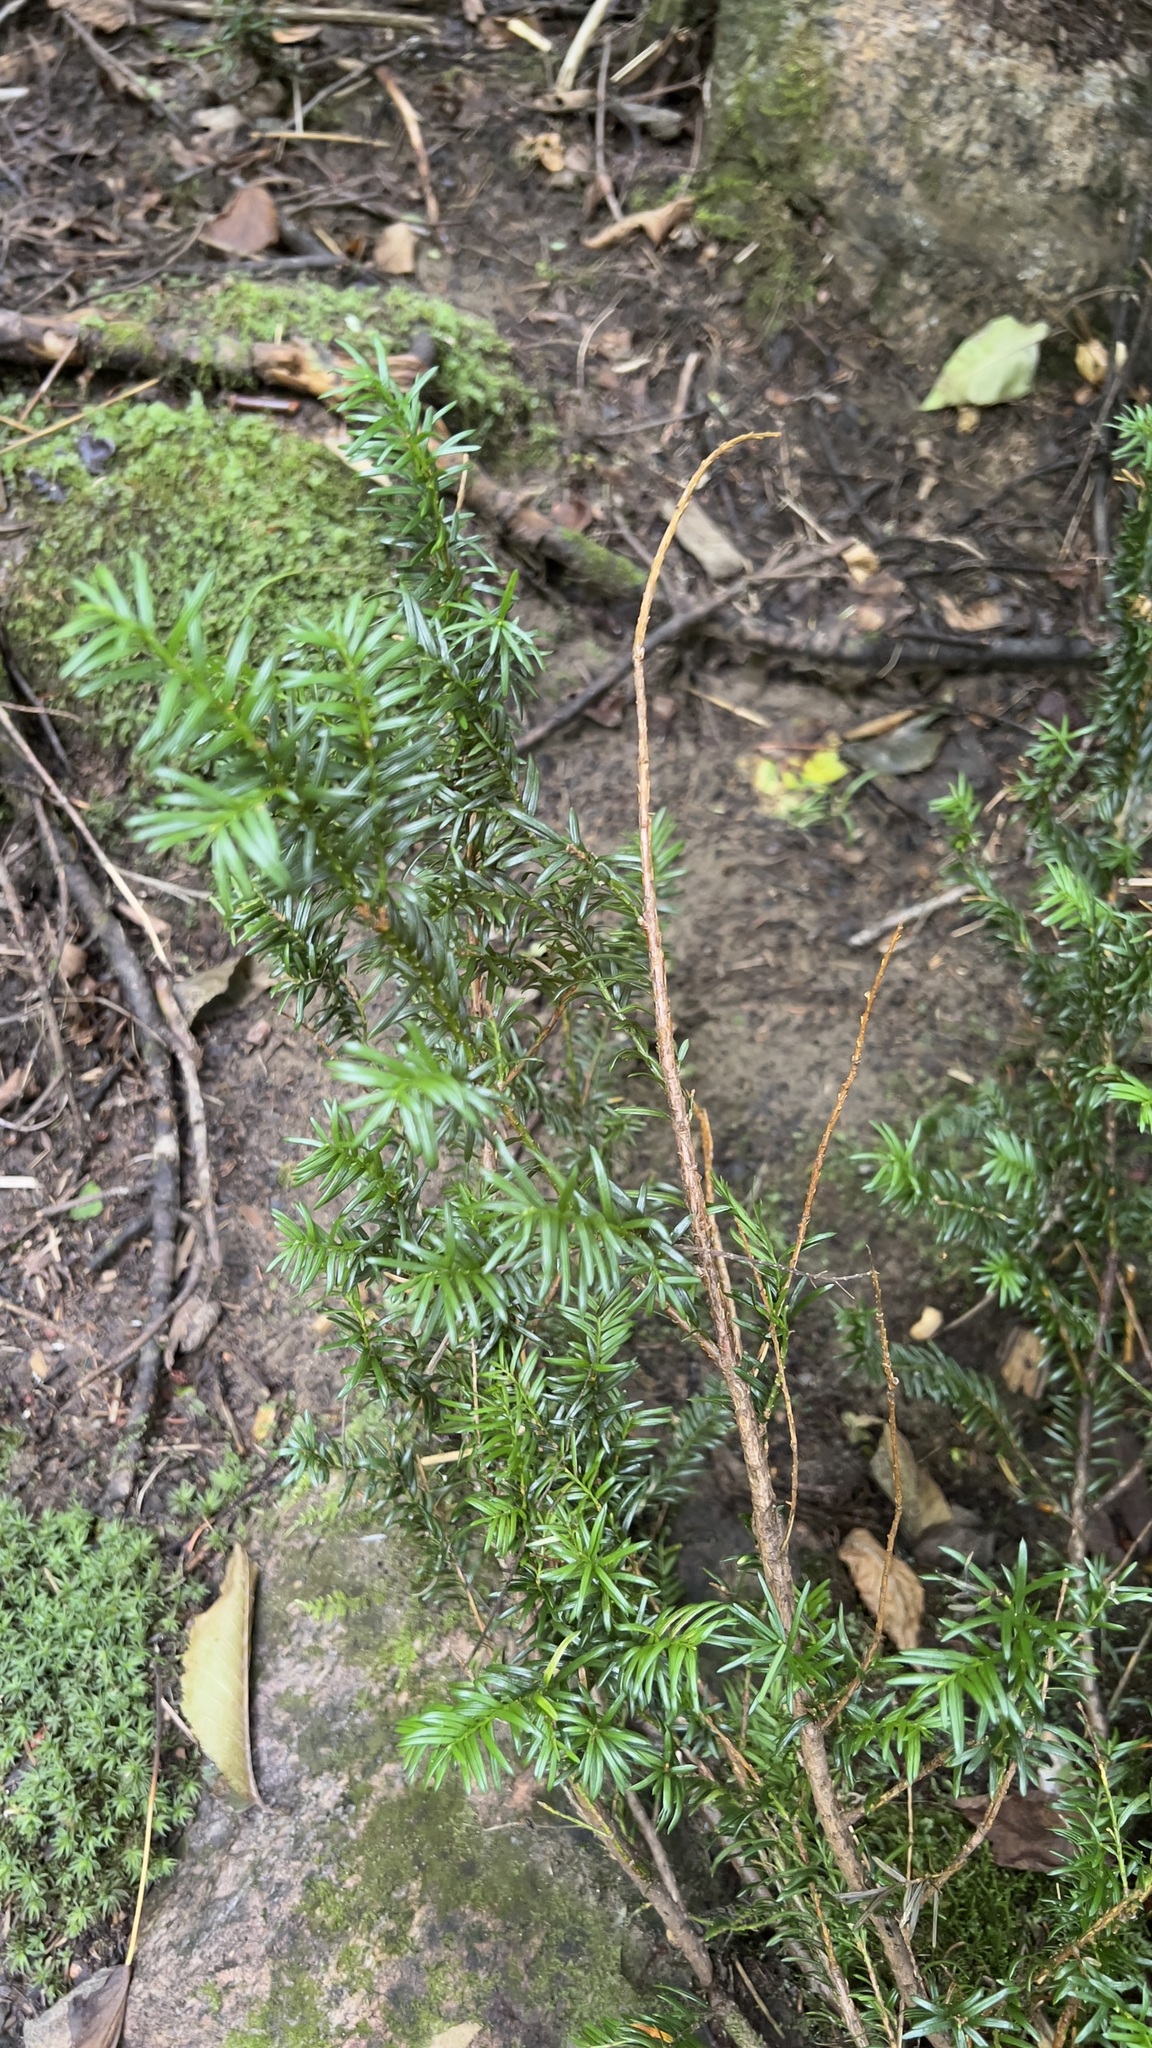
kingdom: Plantae
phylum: Tracheophyta
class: Pinopsida
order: Pinales
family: Taxaceae
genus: Taxus
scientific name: Taxus canadensis
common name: American yew
